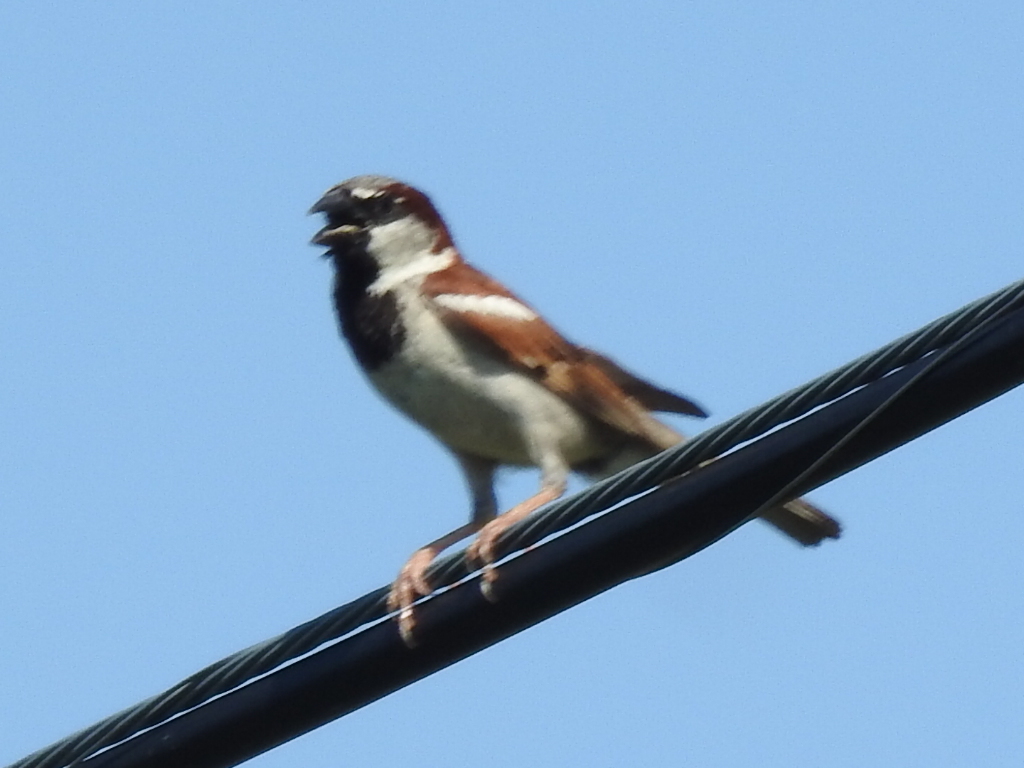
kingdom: Animalia
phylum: Chordata
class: Aves
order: Passeriformes
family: Passeridae
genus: Passer
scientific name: Passer domesticus
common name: House sparrow
